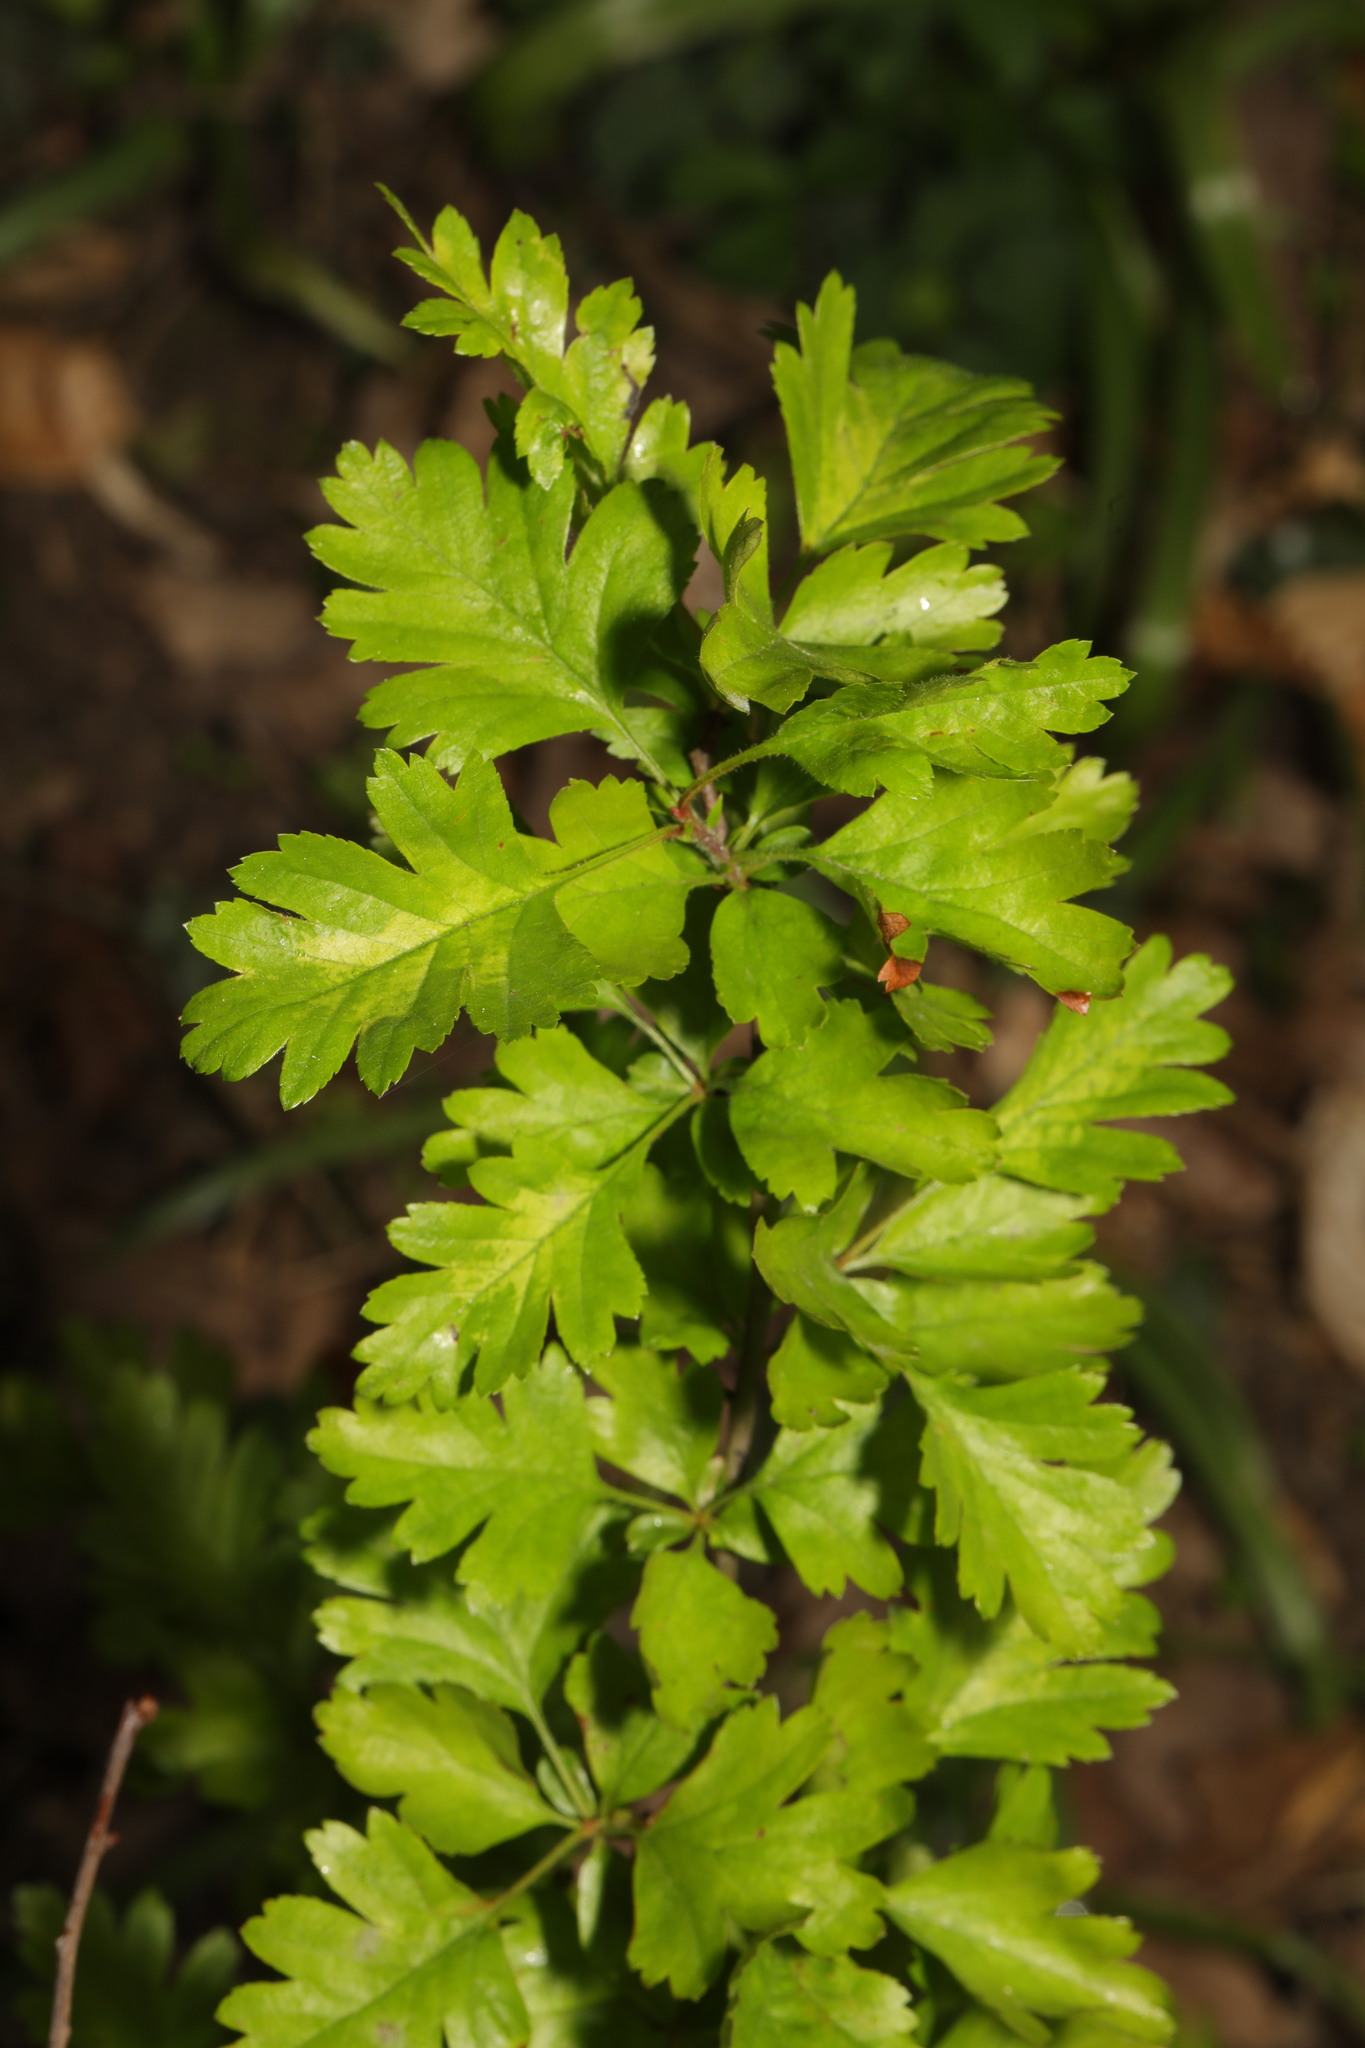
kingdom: Plantae
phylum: Tracheophyta
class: Magnoliopsida
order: Rosales
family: Rosaceae
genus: Crataegus
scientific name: Crataegus monogyna
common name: Hawthorn
